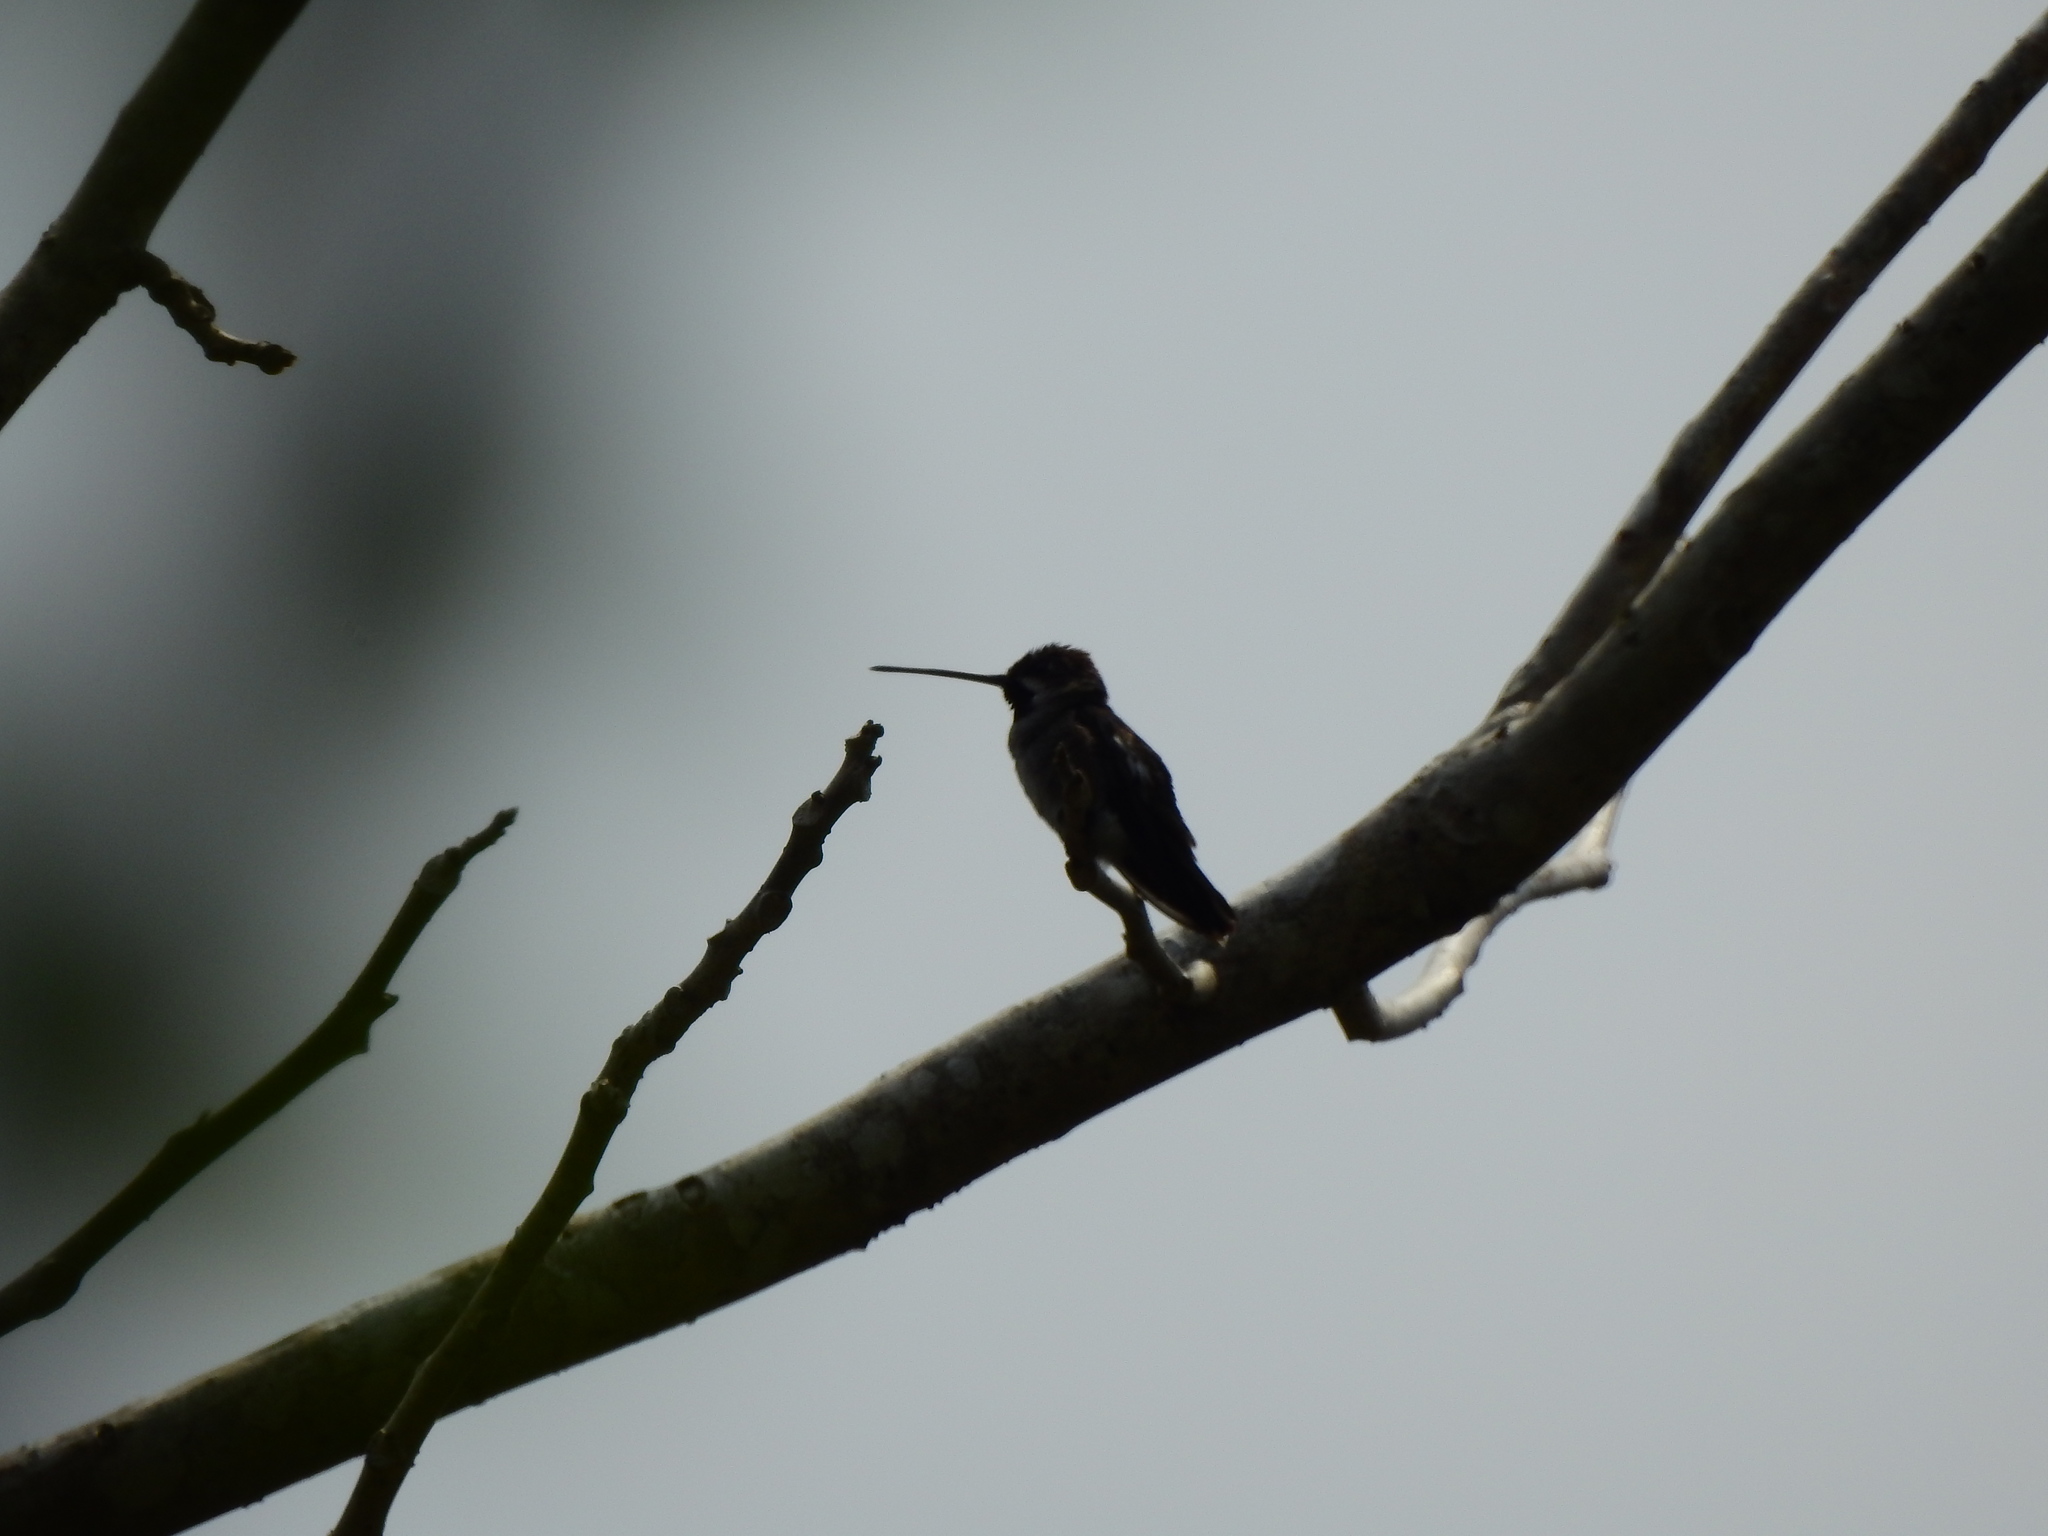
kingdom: Animalia
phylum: Chordata
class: Aves
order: Apodiformes
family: Trochilidae
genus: Heliomaster
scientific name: Heliomaster longirostris
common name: Long-billed starthroat
